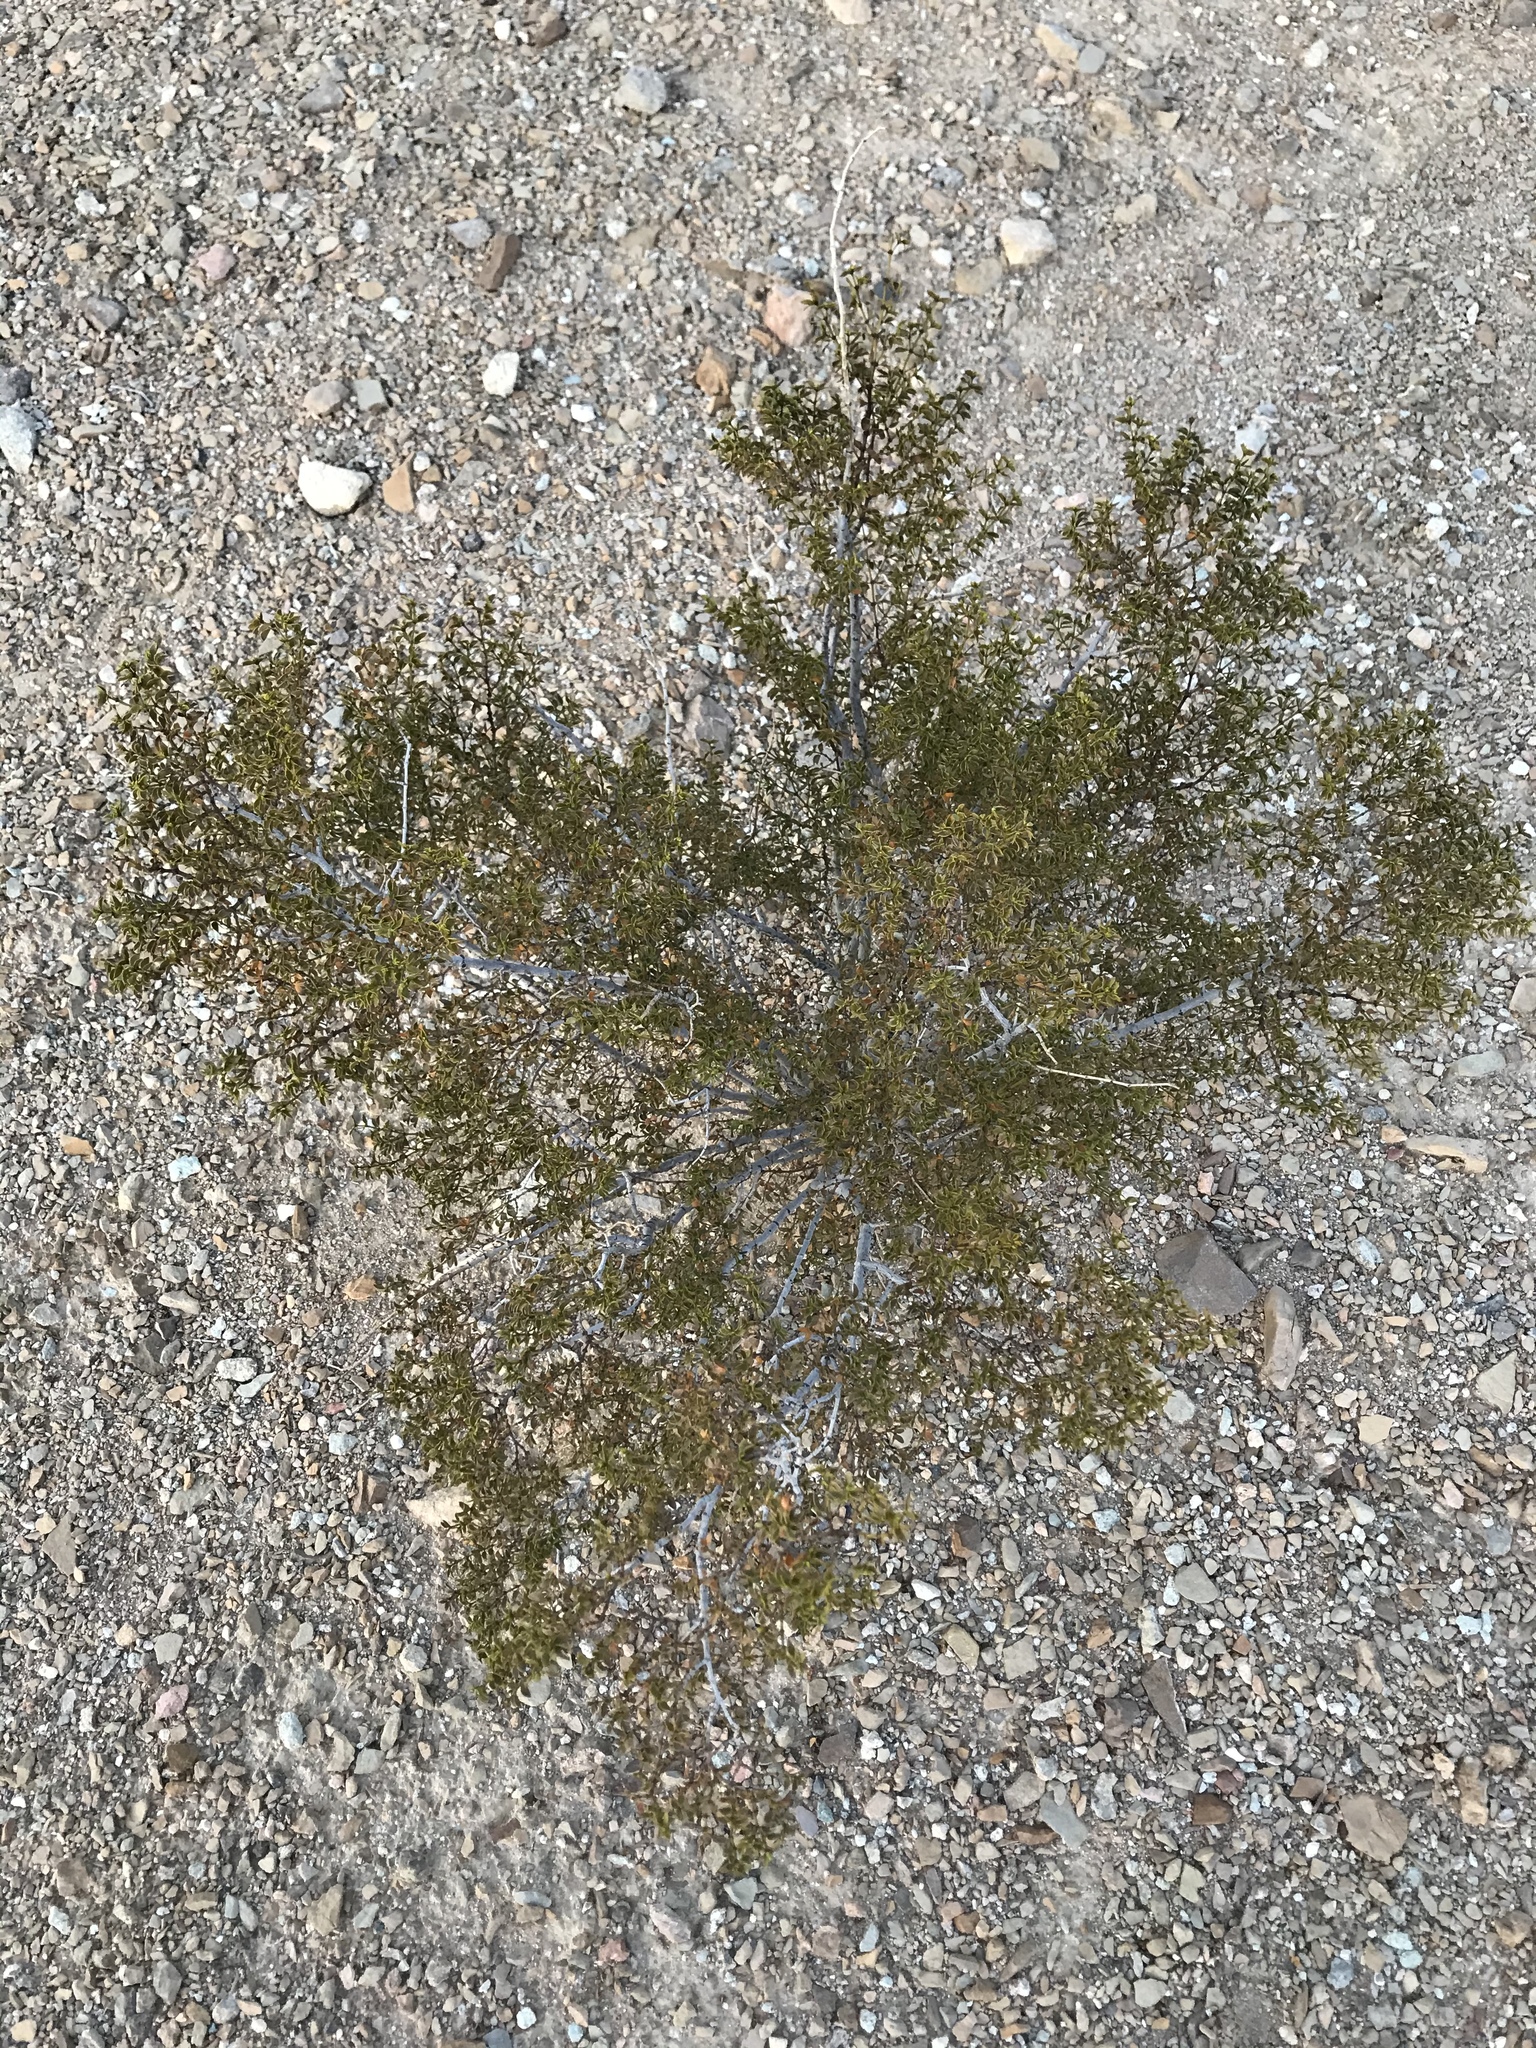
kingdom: Plantae
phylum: Tracheophyta
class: Magnoliopsida
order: Zygophyllales
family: Zygophyllaceae
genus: Larrea
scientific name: Larrea tridentata
